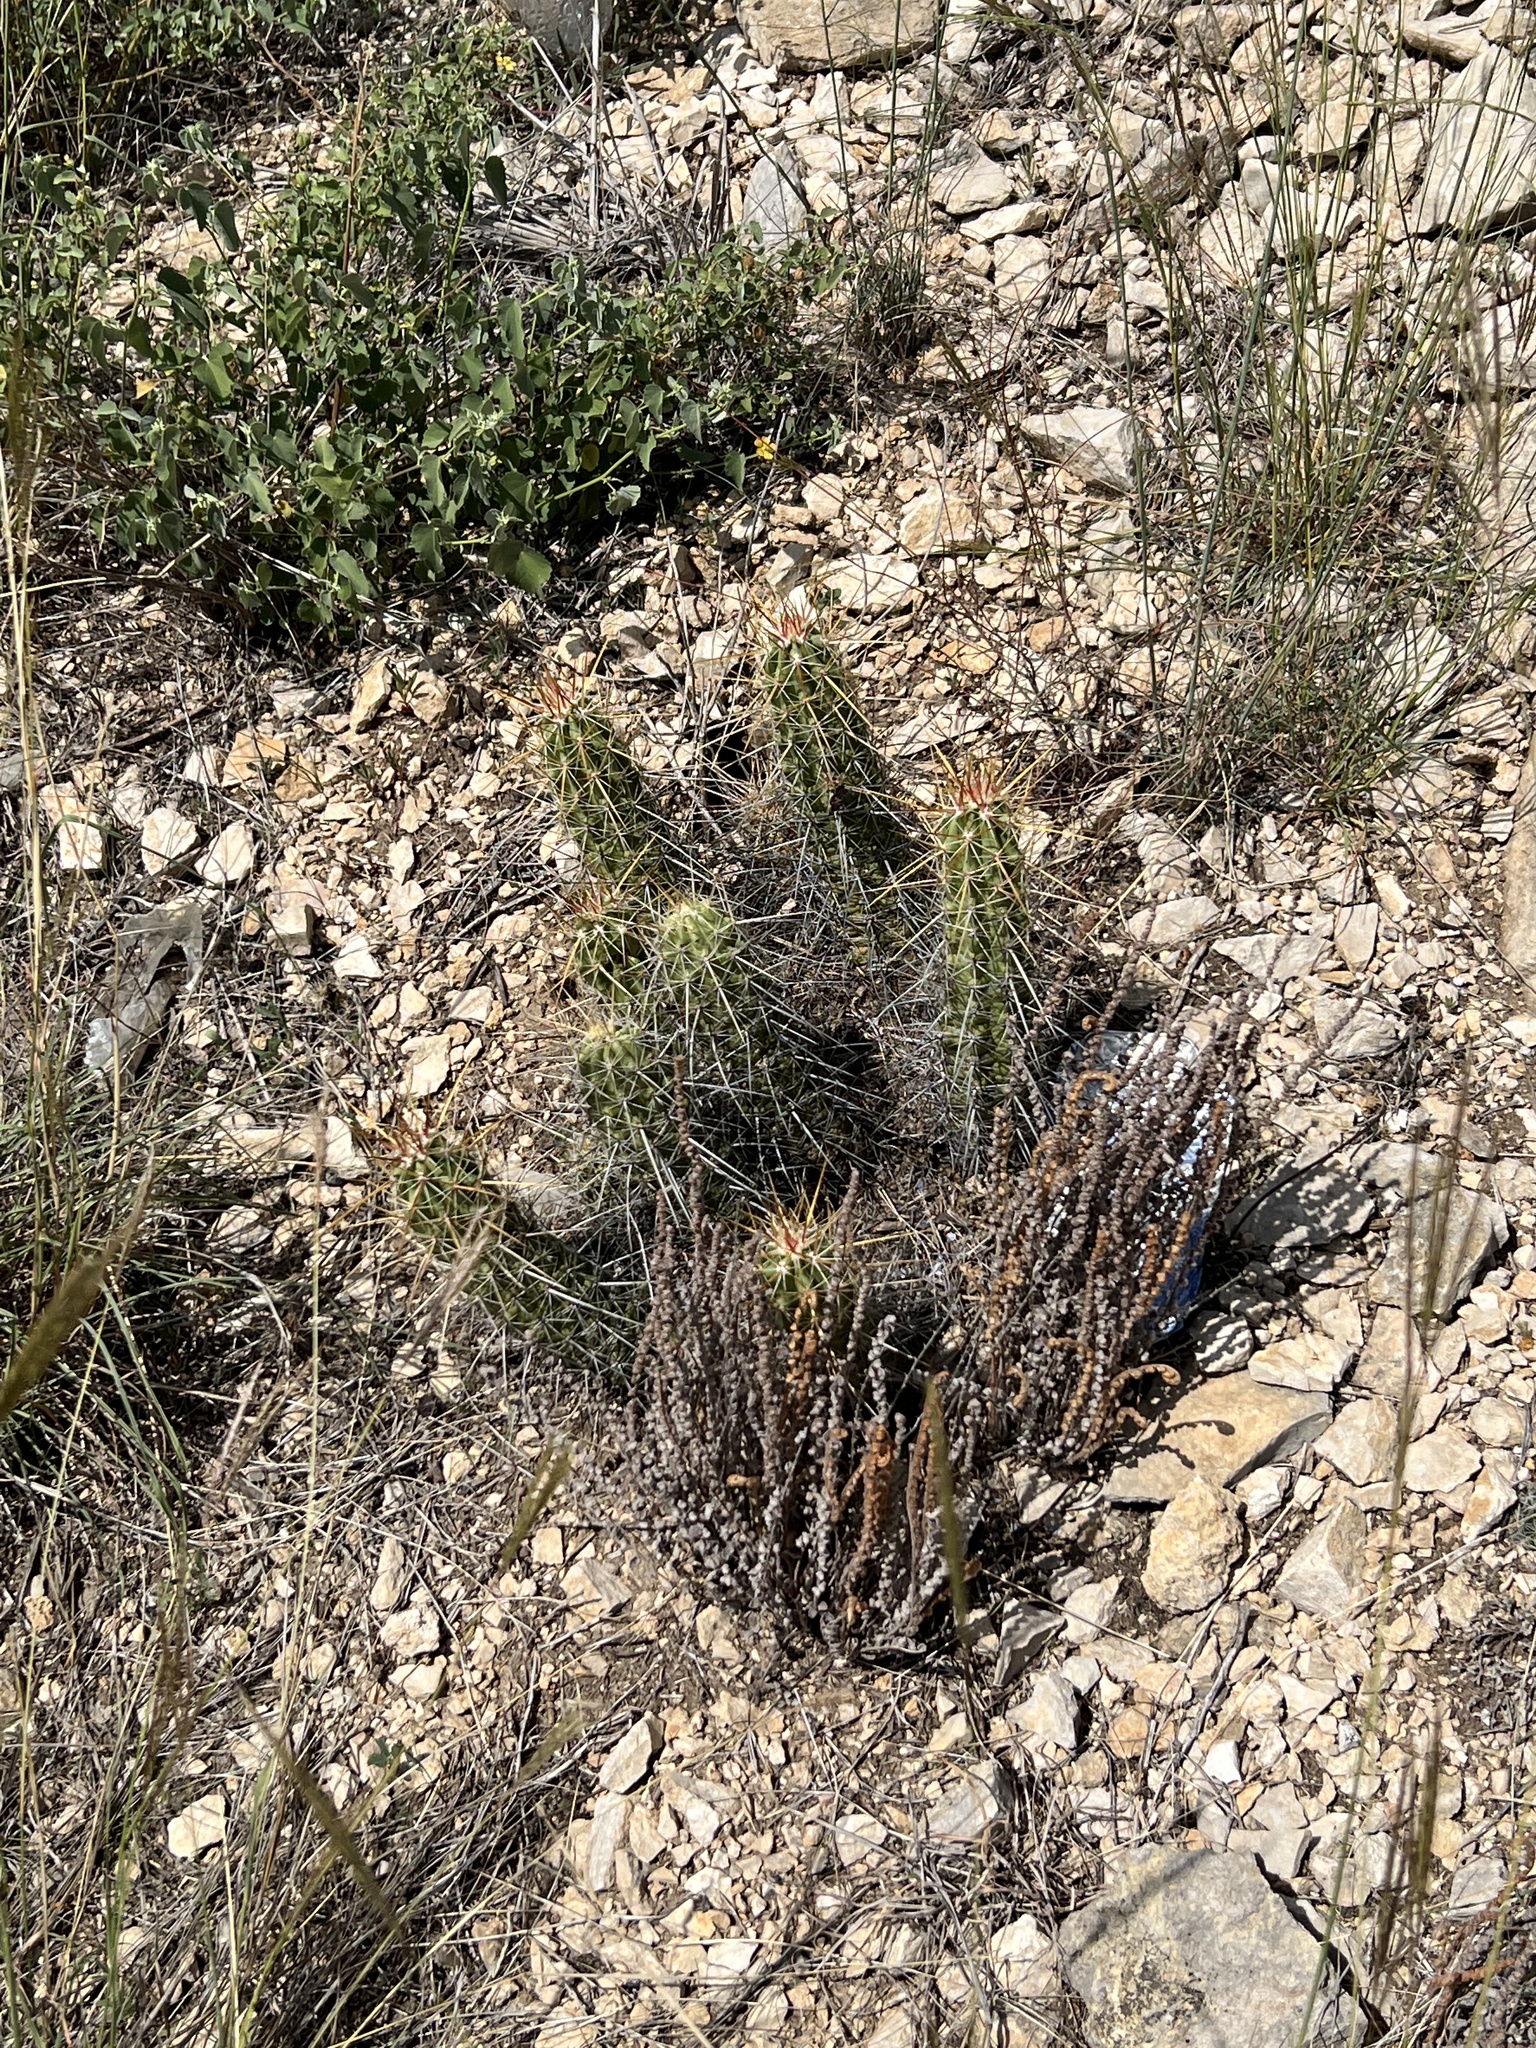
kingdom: Plantae
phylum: Tracheophyta
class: Magnoliopsida
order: Caryophyllales
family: Cactaceae
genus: Echinocereus
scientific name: Echinocereus enneacanthus
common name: Pitaya
